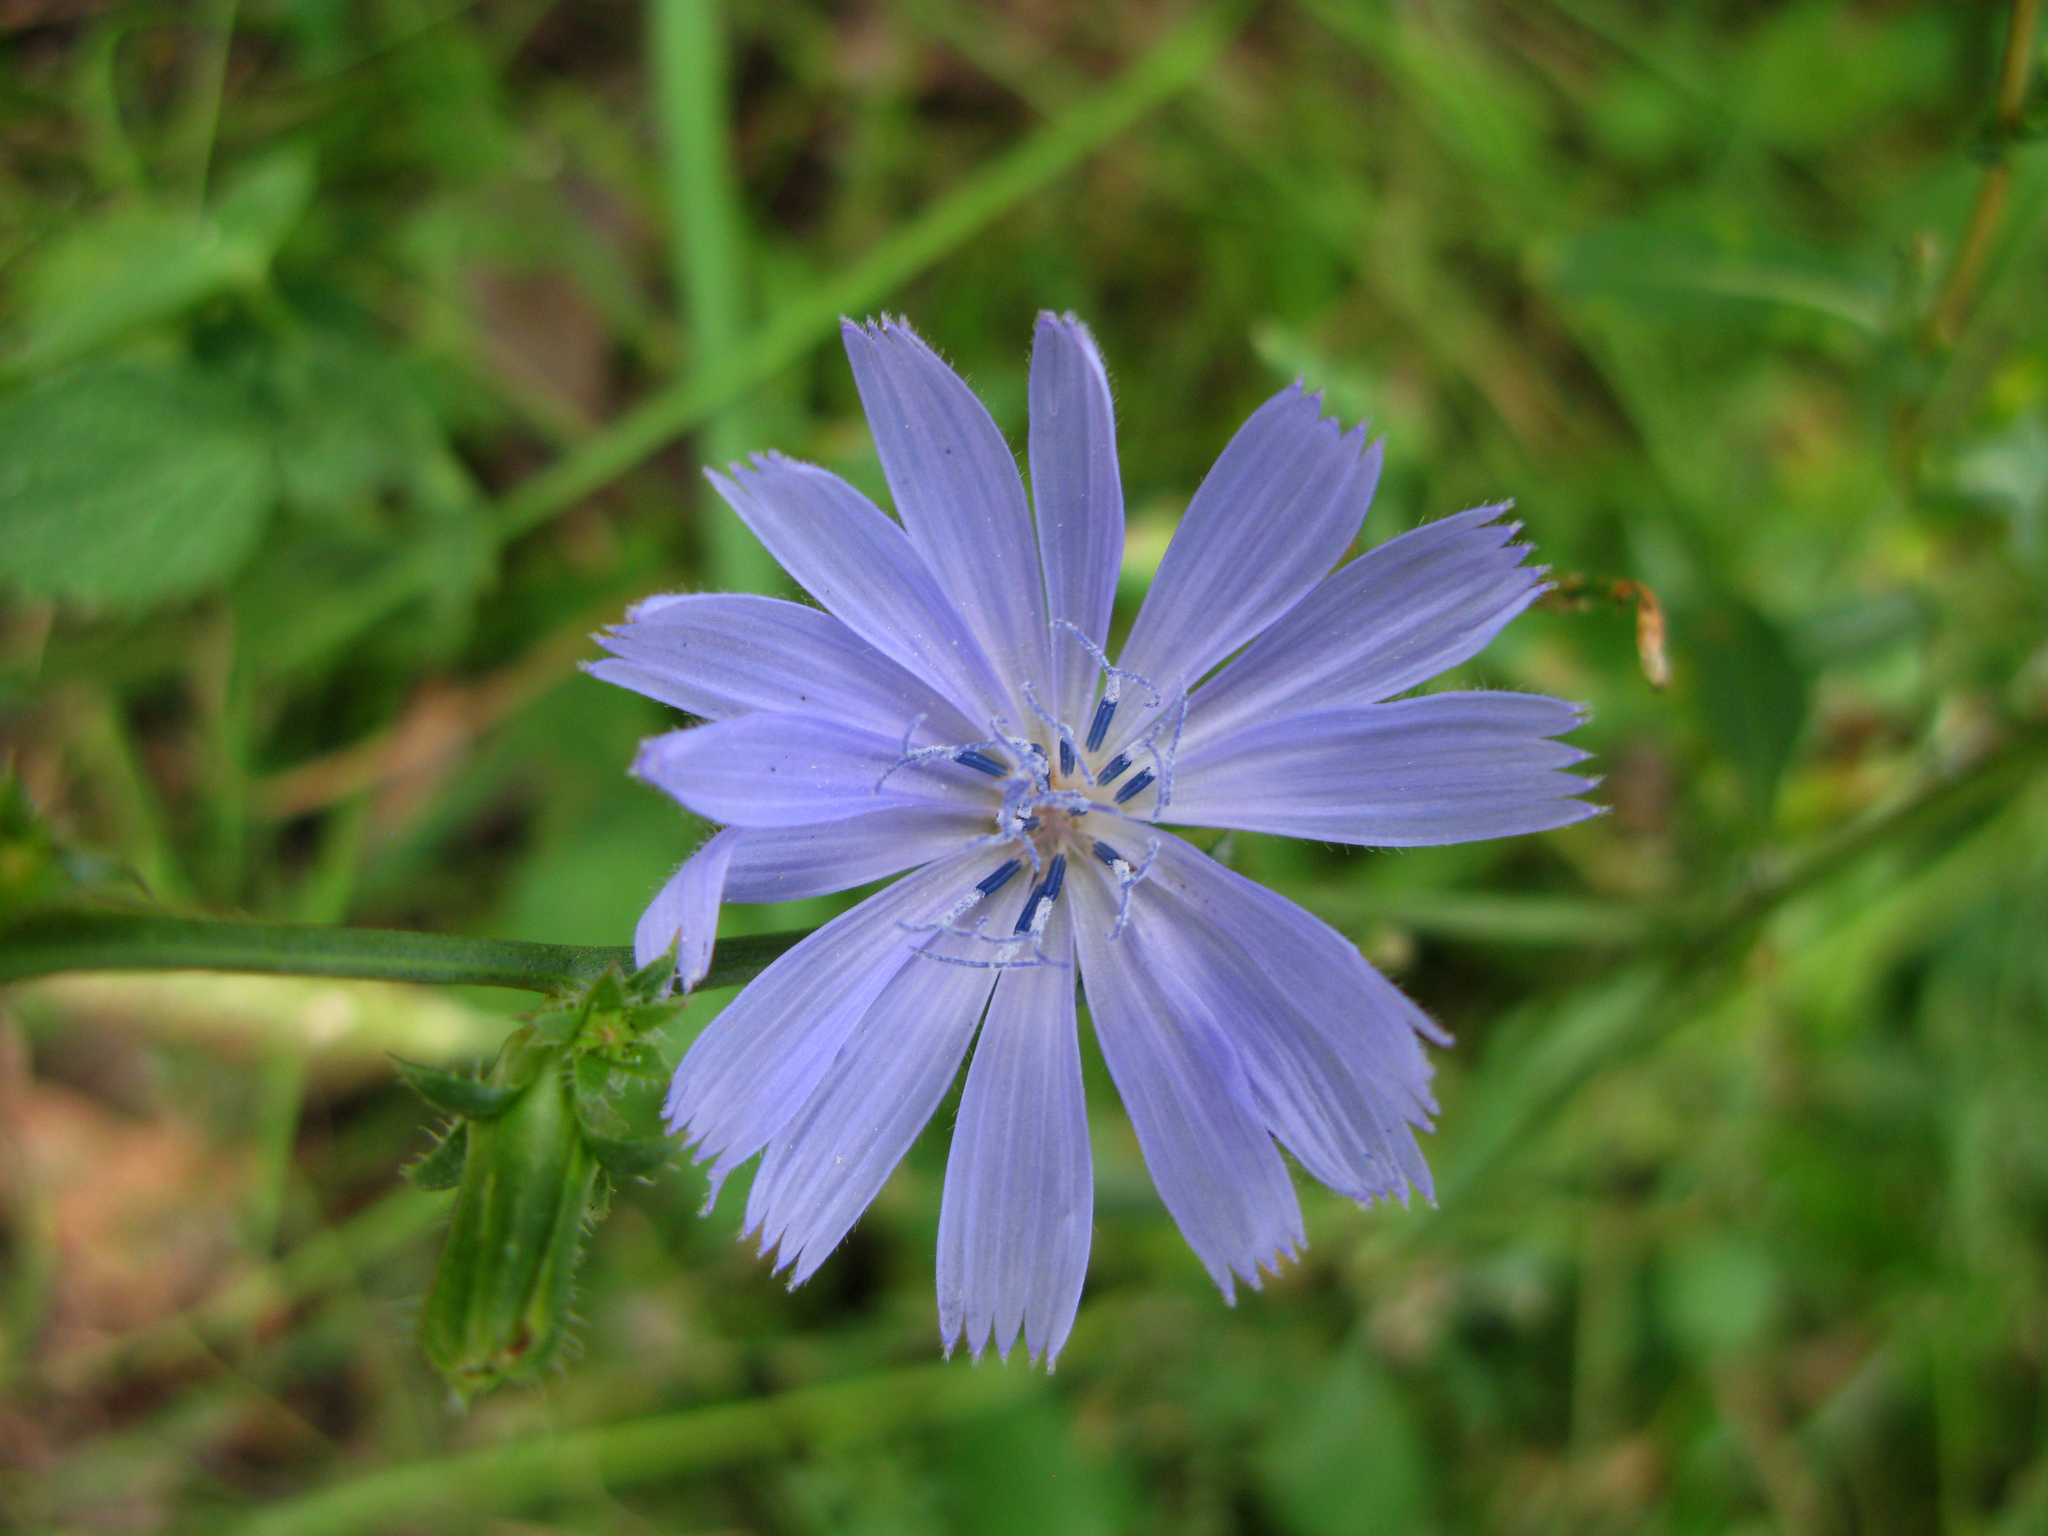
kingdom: Plantae
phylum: Tracheophyta
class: Magnoliopsida
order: Asterales
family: Asteraceae
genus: Cichorium
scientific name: Cichorium intybus
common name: Chicory
